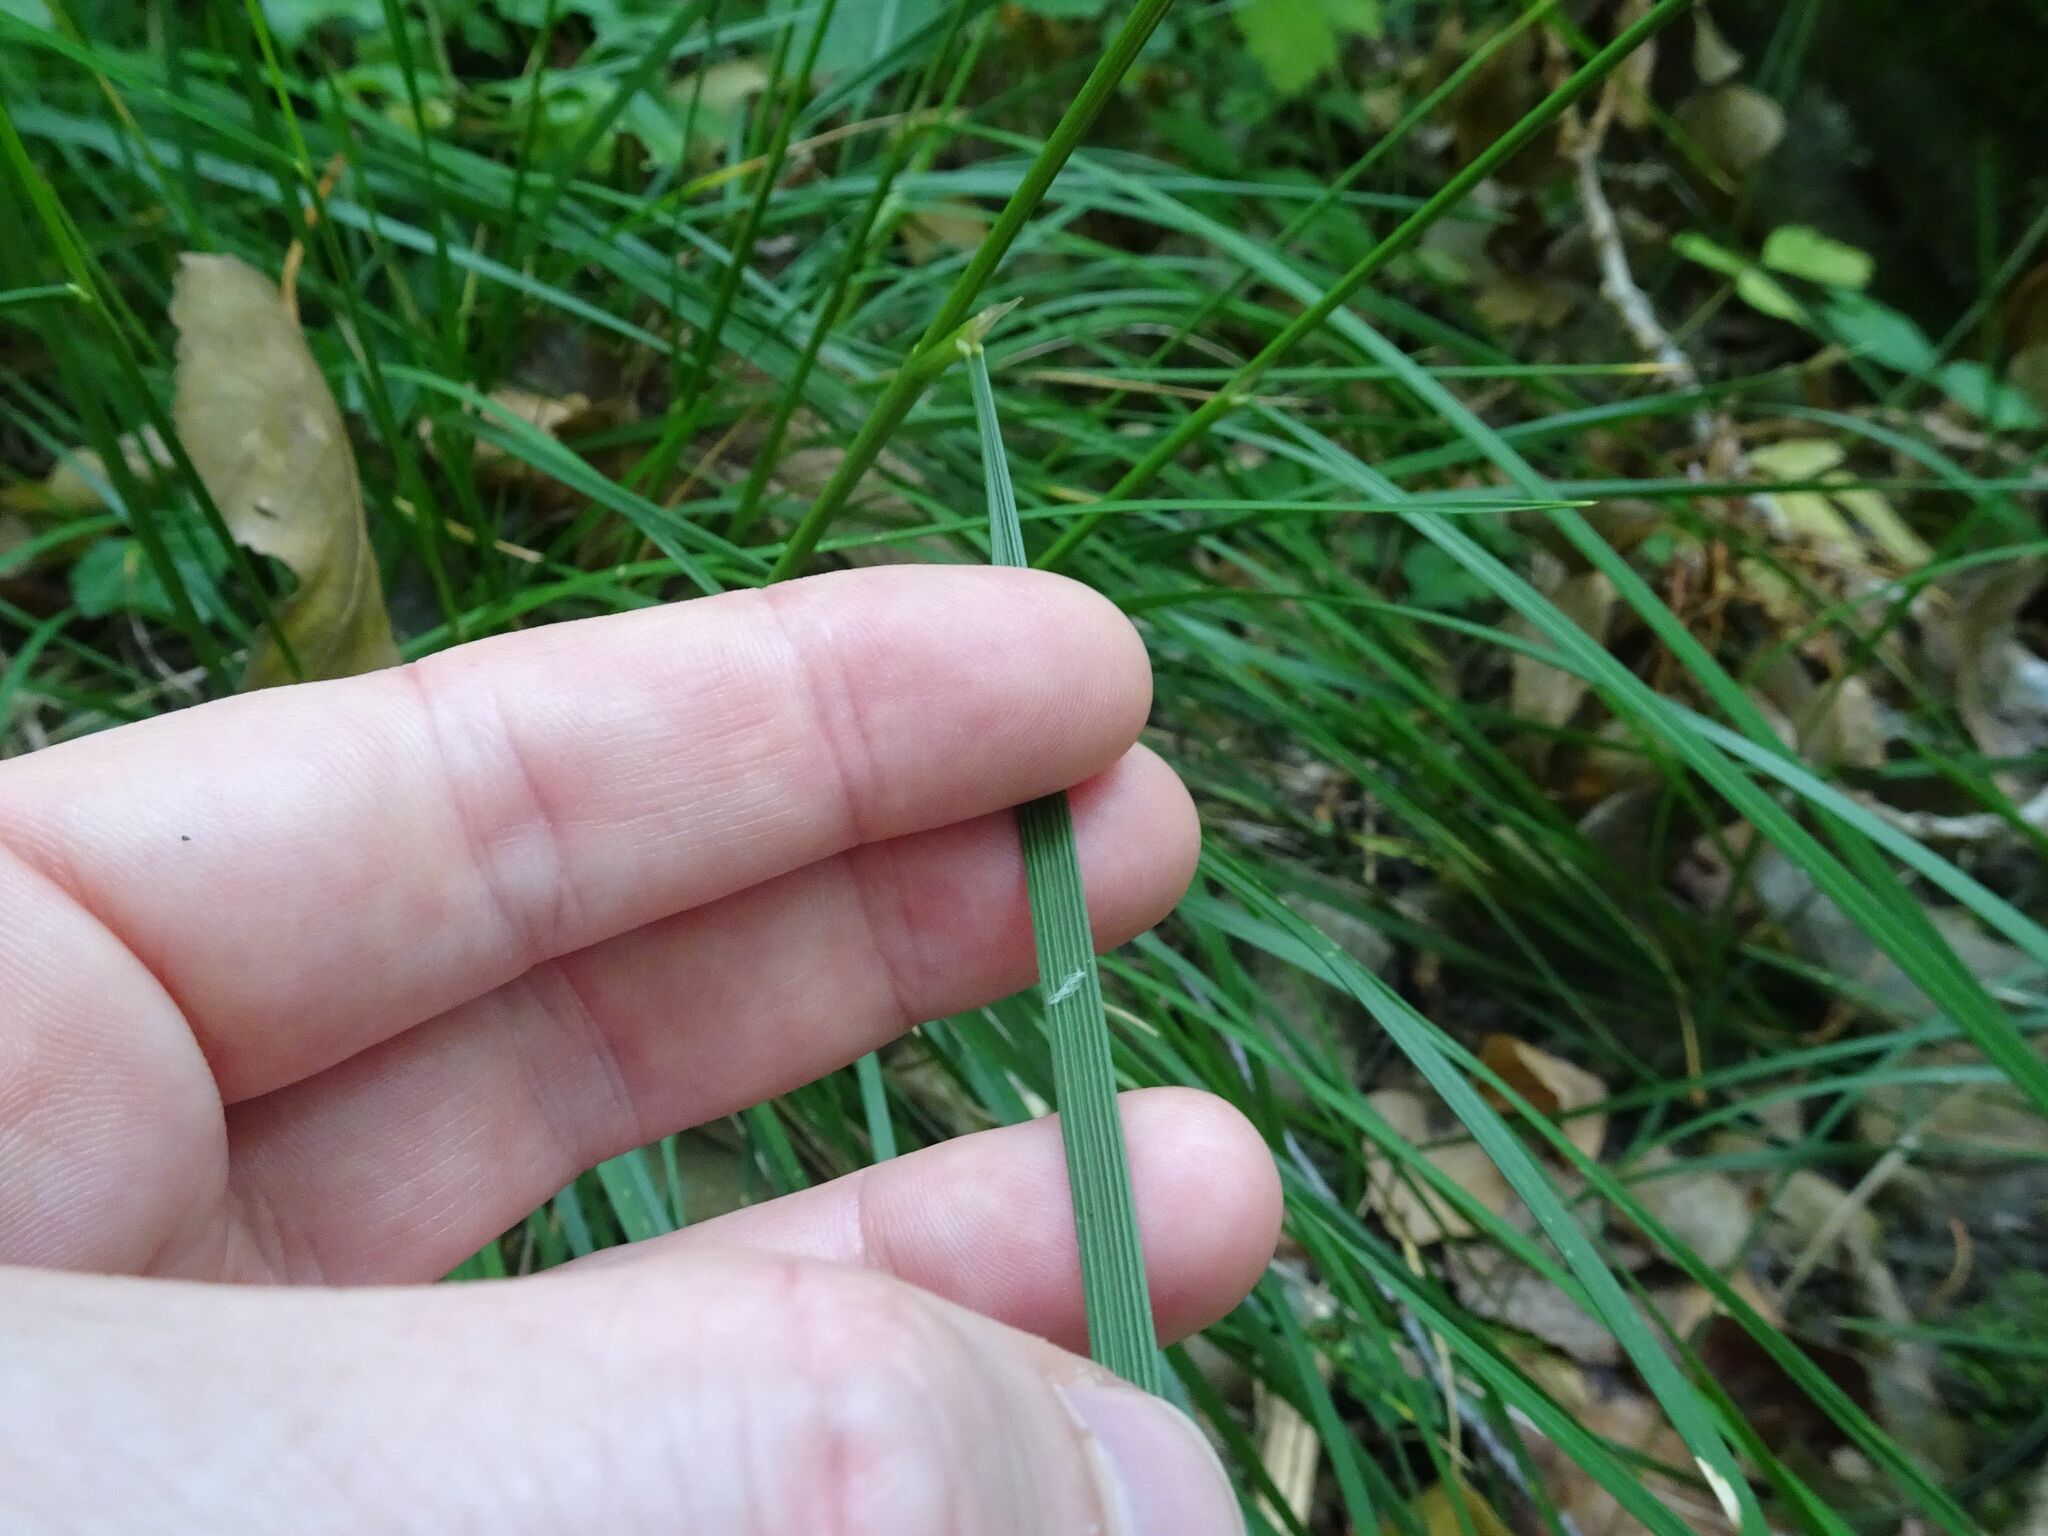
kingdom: Plantae
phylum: Tracheophyta
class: Liliopsida
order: Poales
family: Poaceae
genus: Deschampsia
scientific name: Deschampsia cespitosa
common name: Tufted hair-grass
